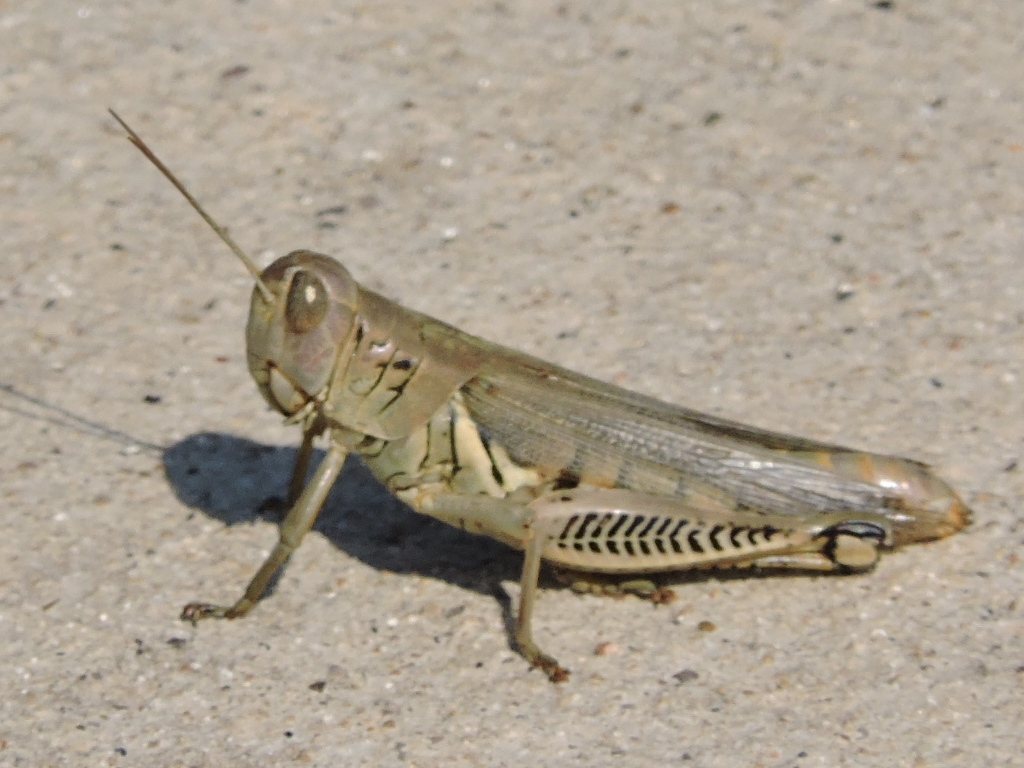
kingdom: Animalia
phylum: Arthropoda
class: Insecta
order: Orthoptera
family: Acrididae
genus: Melanoplus
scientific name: Melanoplus differentialis
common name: Differential grasshopper
